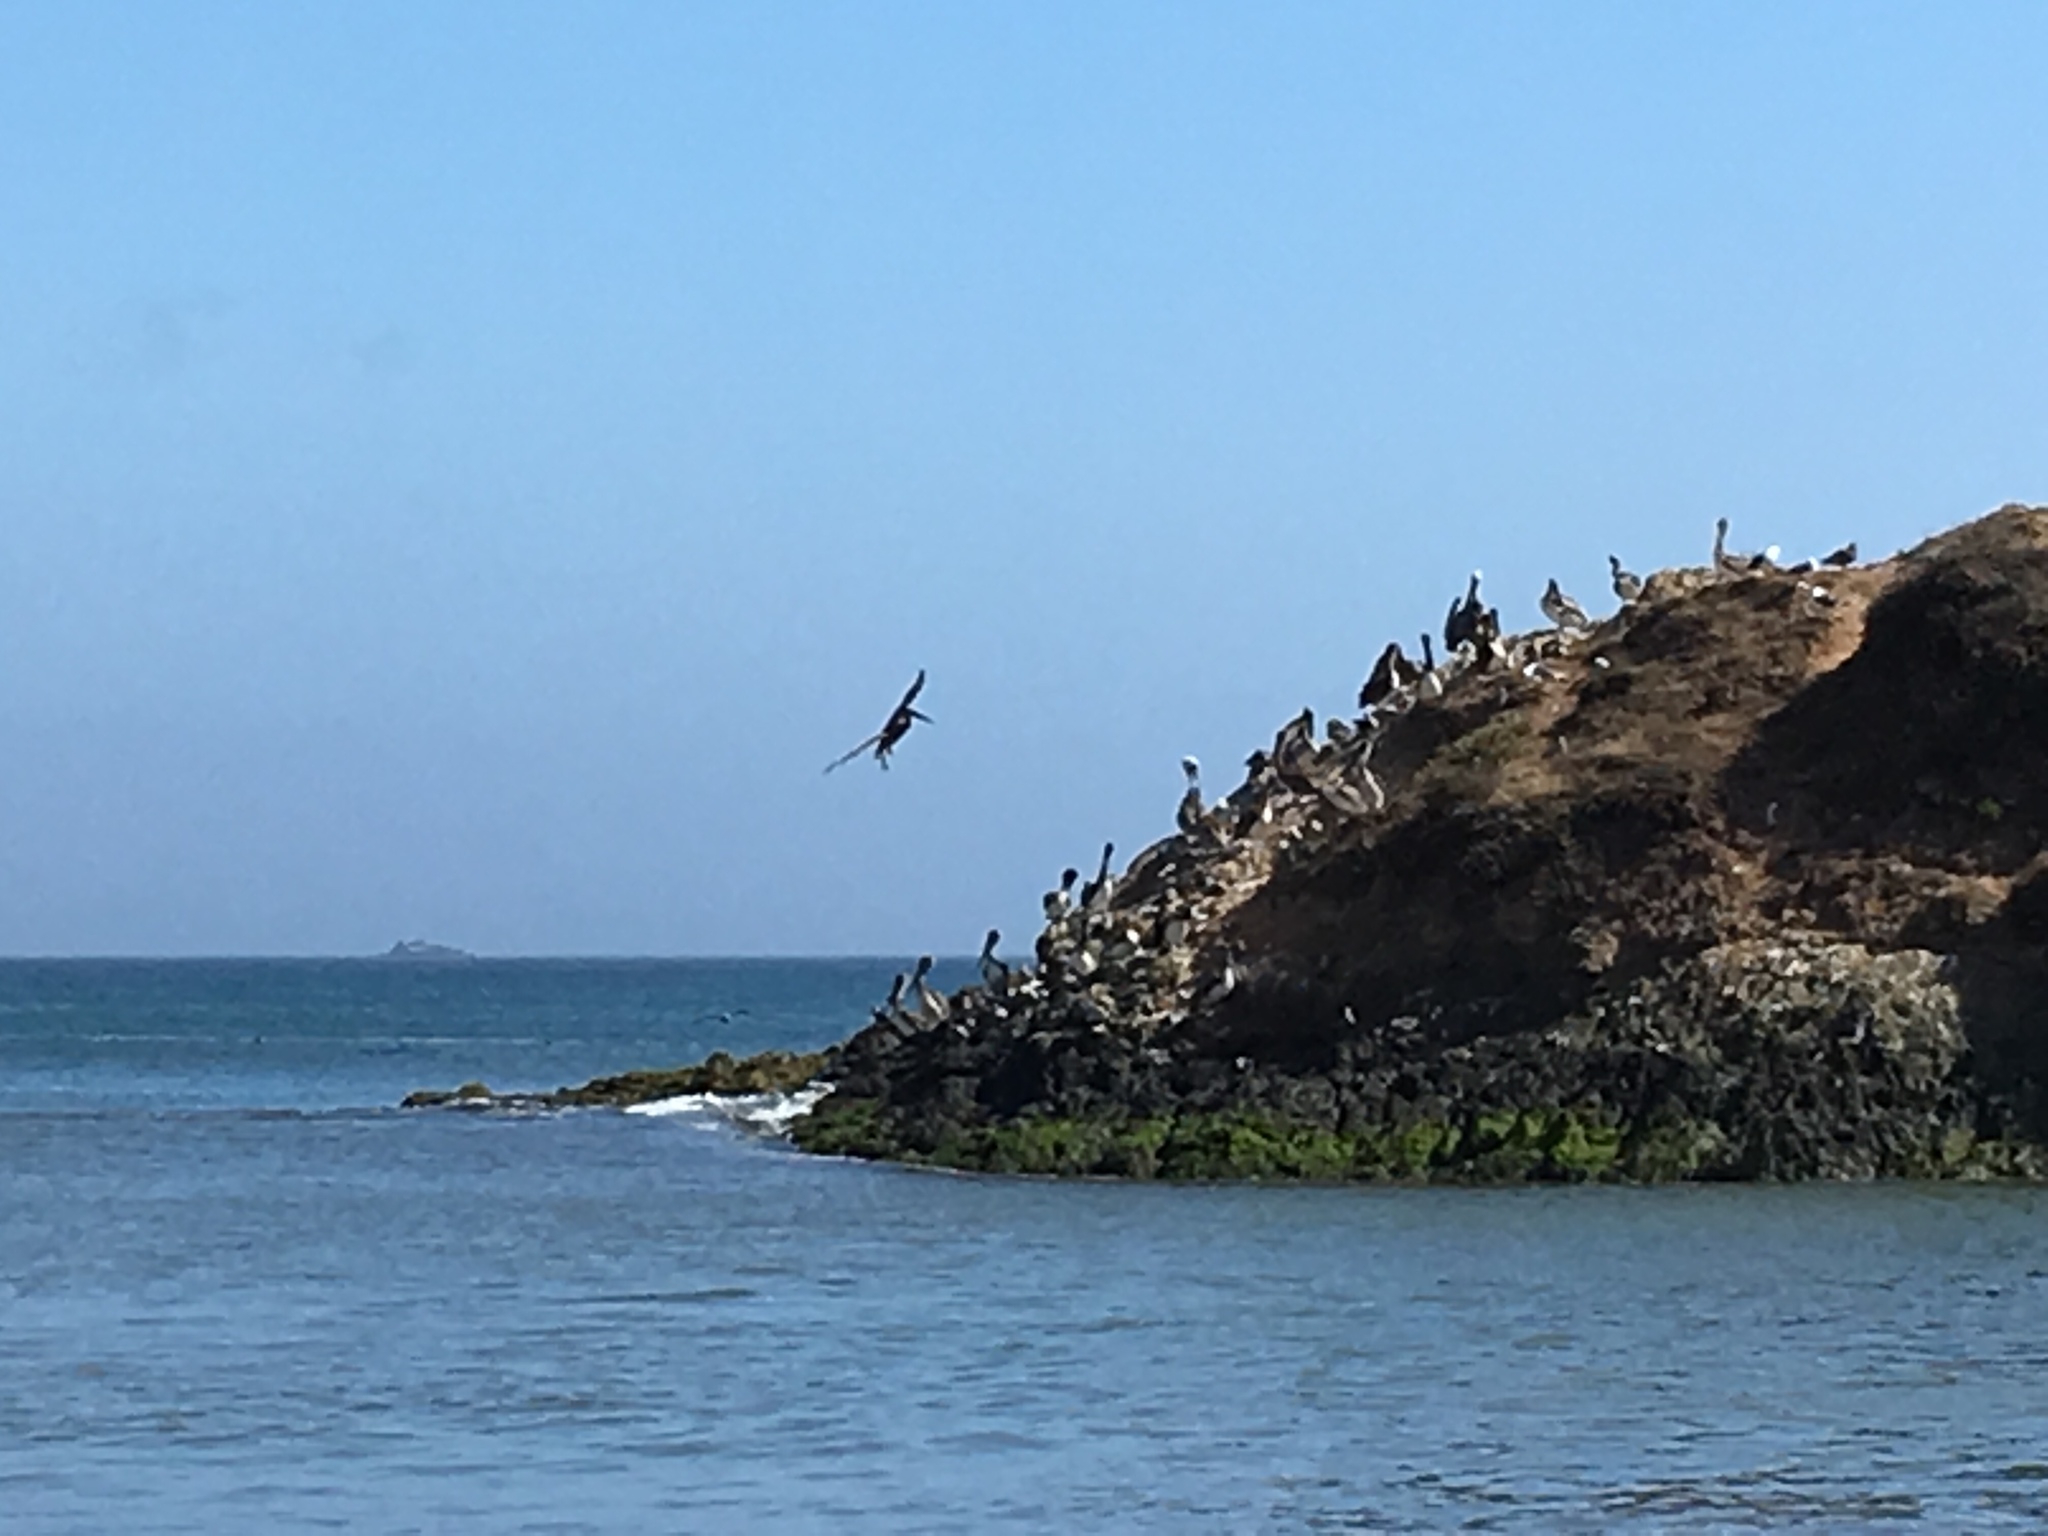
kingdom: Animalia
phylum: Chordata
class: Aves
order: Pelecaniformes
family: Pelecanidae
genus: Pelecanus
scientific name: Pelecanus occidentalis
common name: Brown pelican
